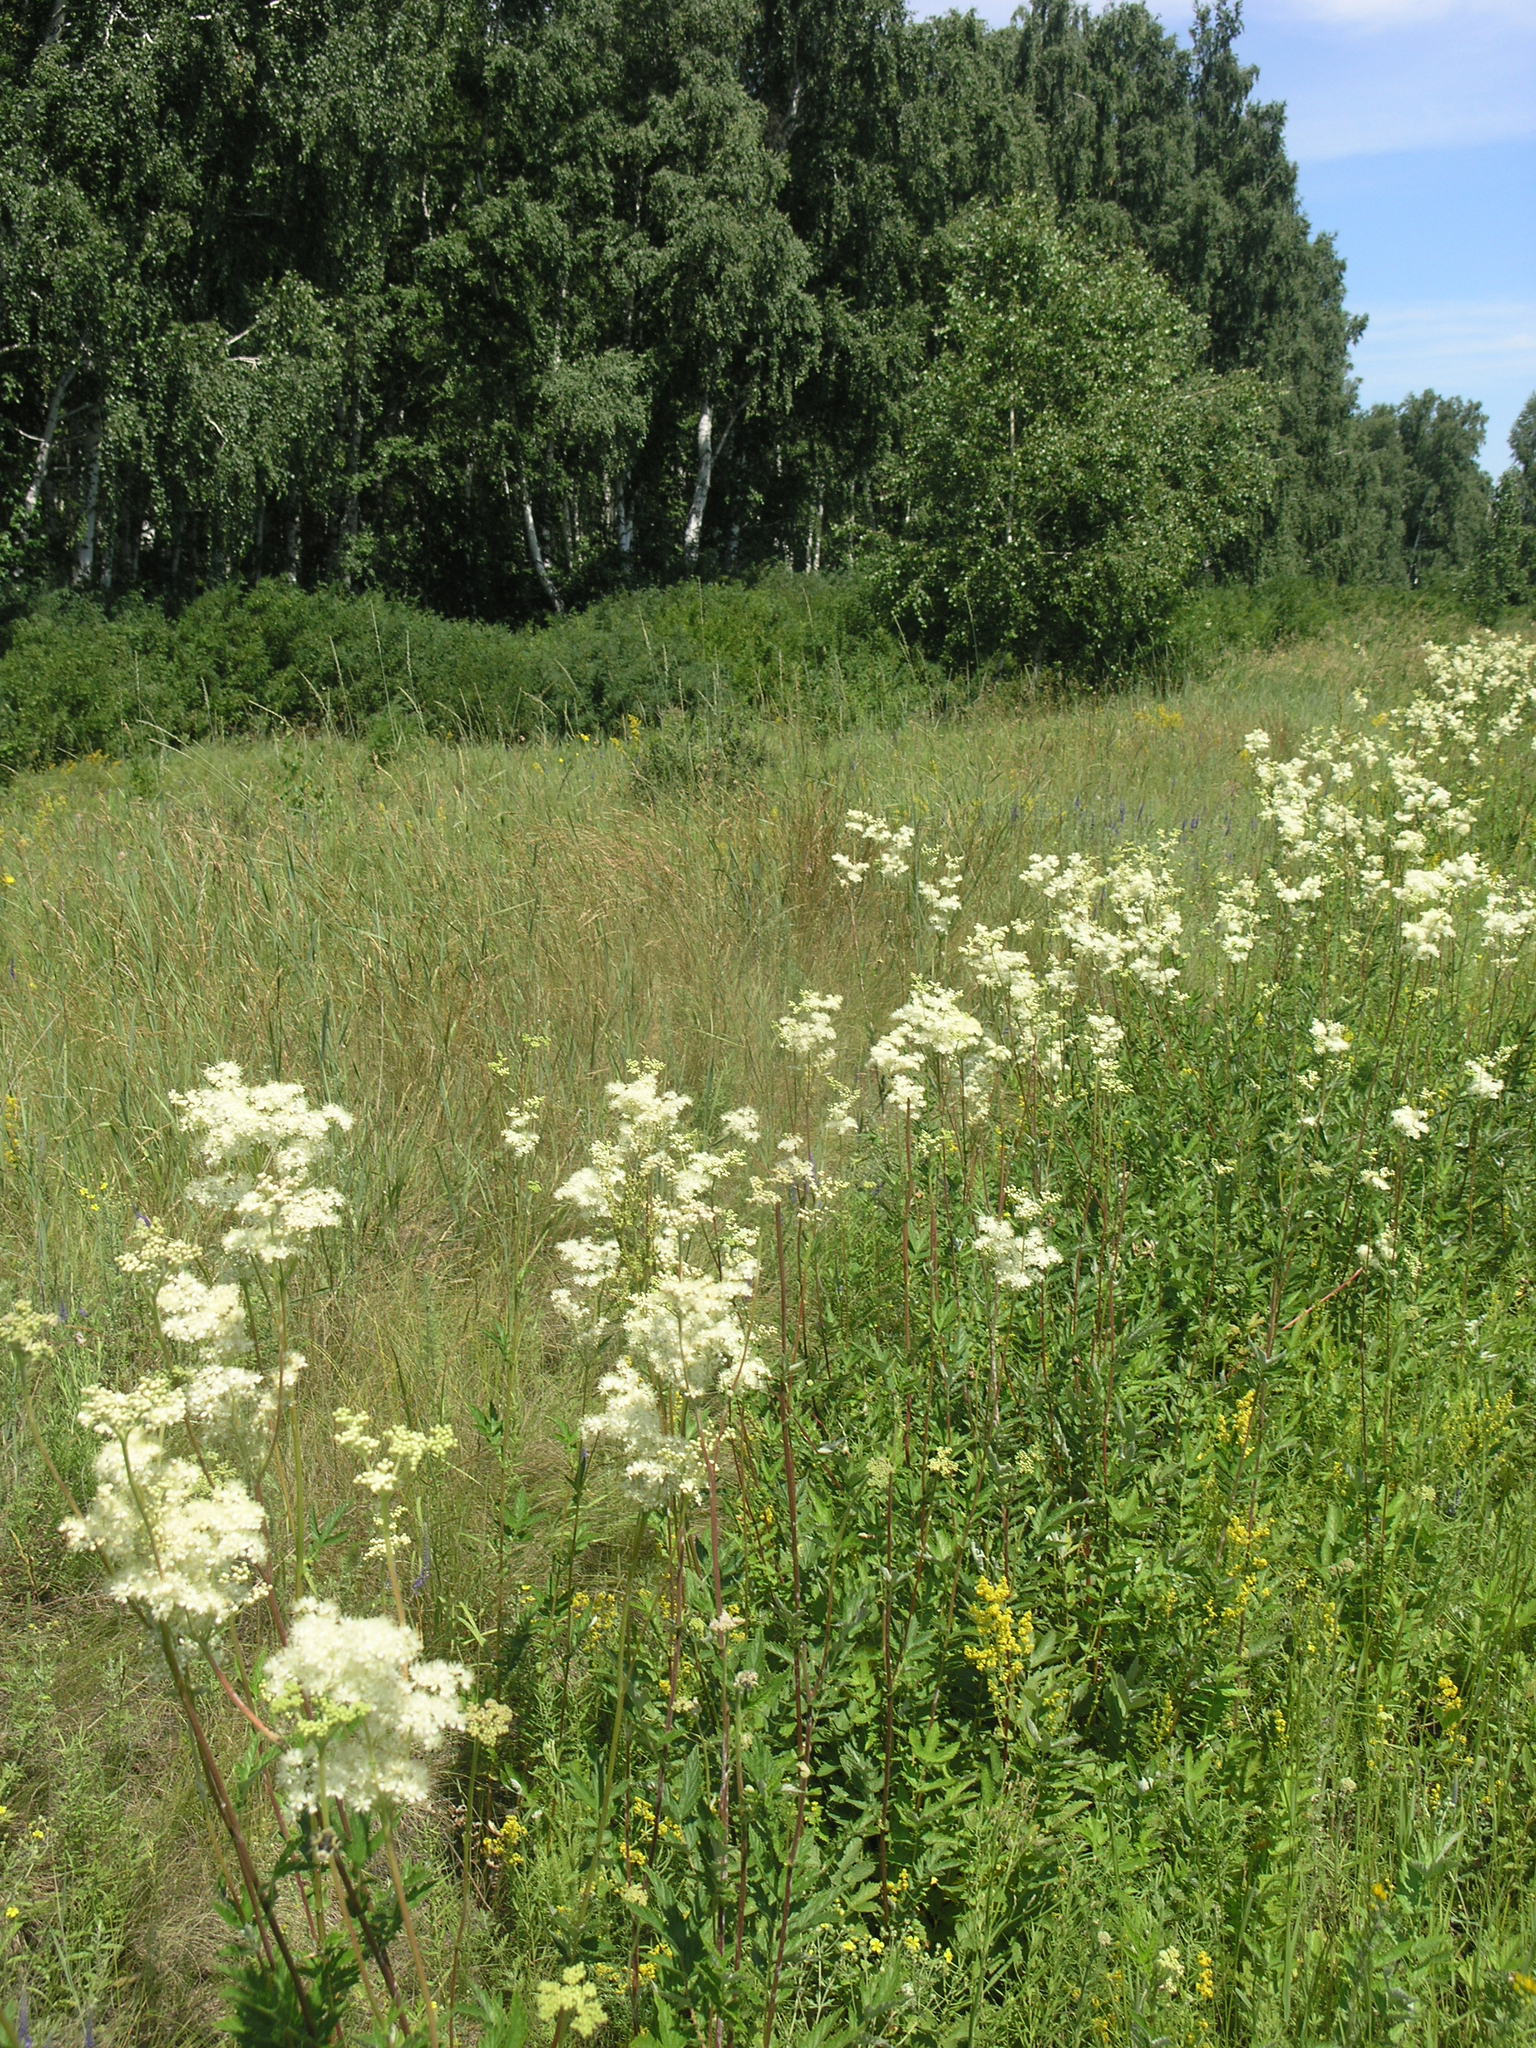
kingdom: Plantae
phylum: Tracheophyta
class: Magnoliopsida
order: Rosales
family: Rosaceae
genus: Filipendula
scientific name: Filipendula ulmaria
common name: Meadowsweet
